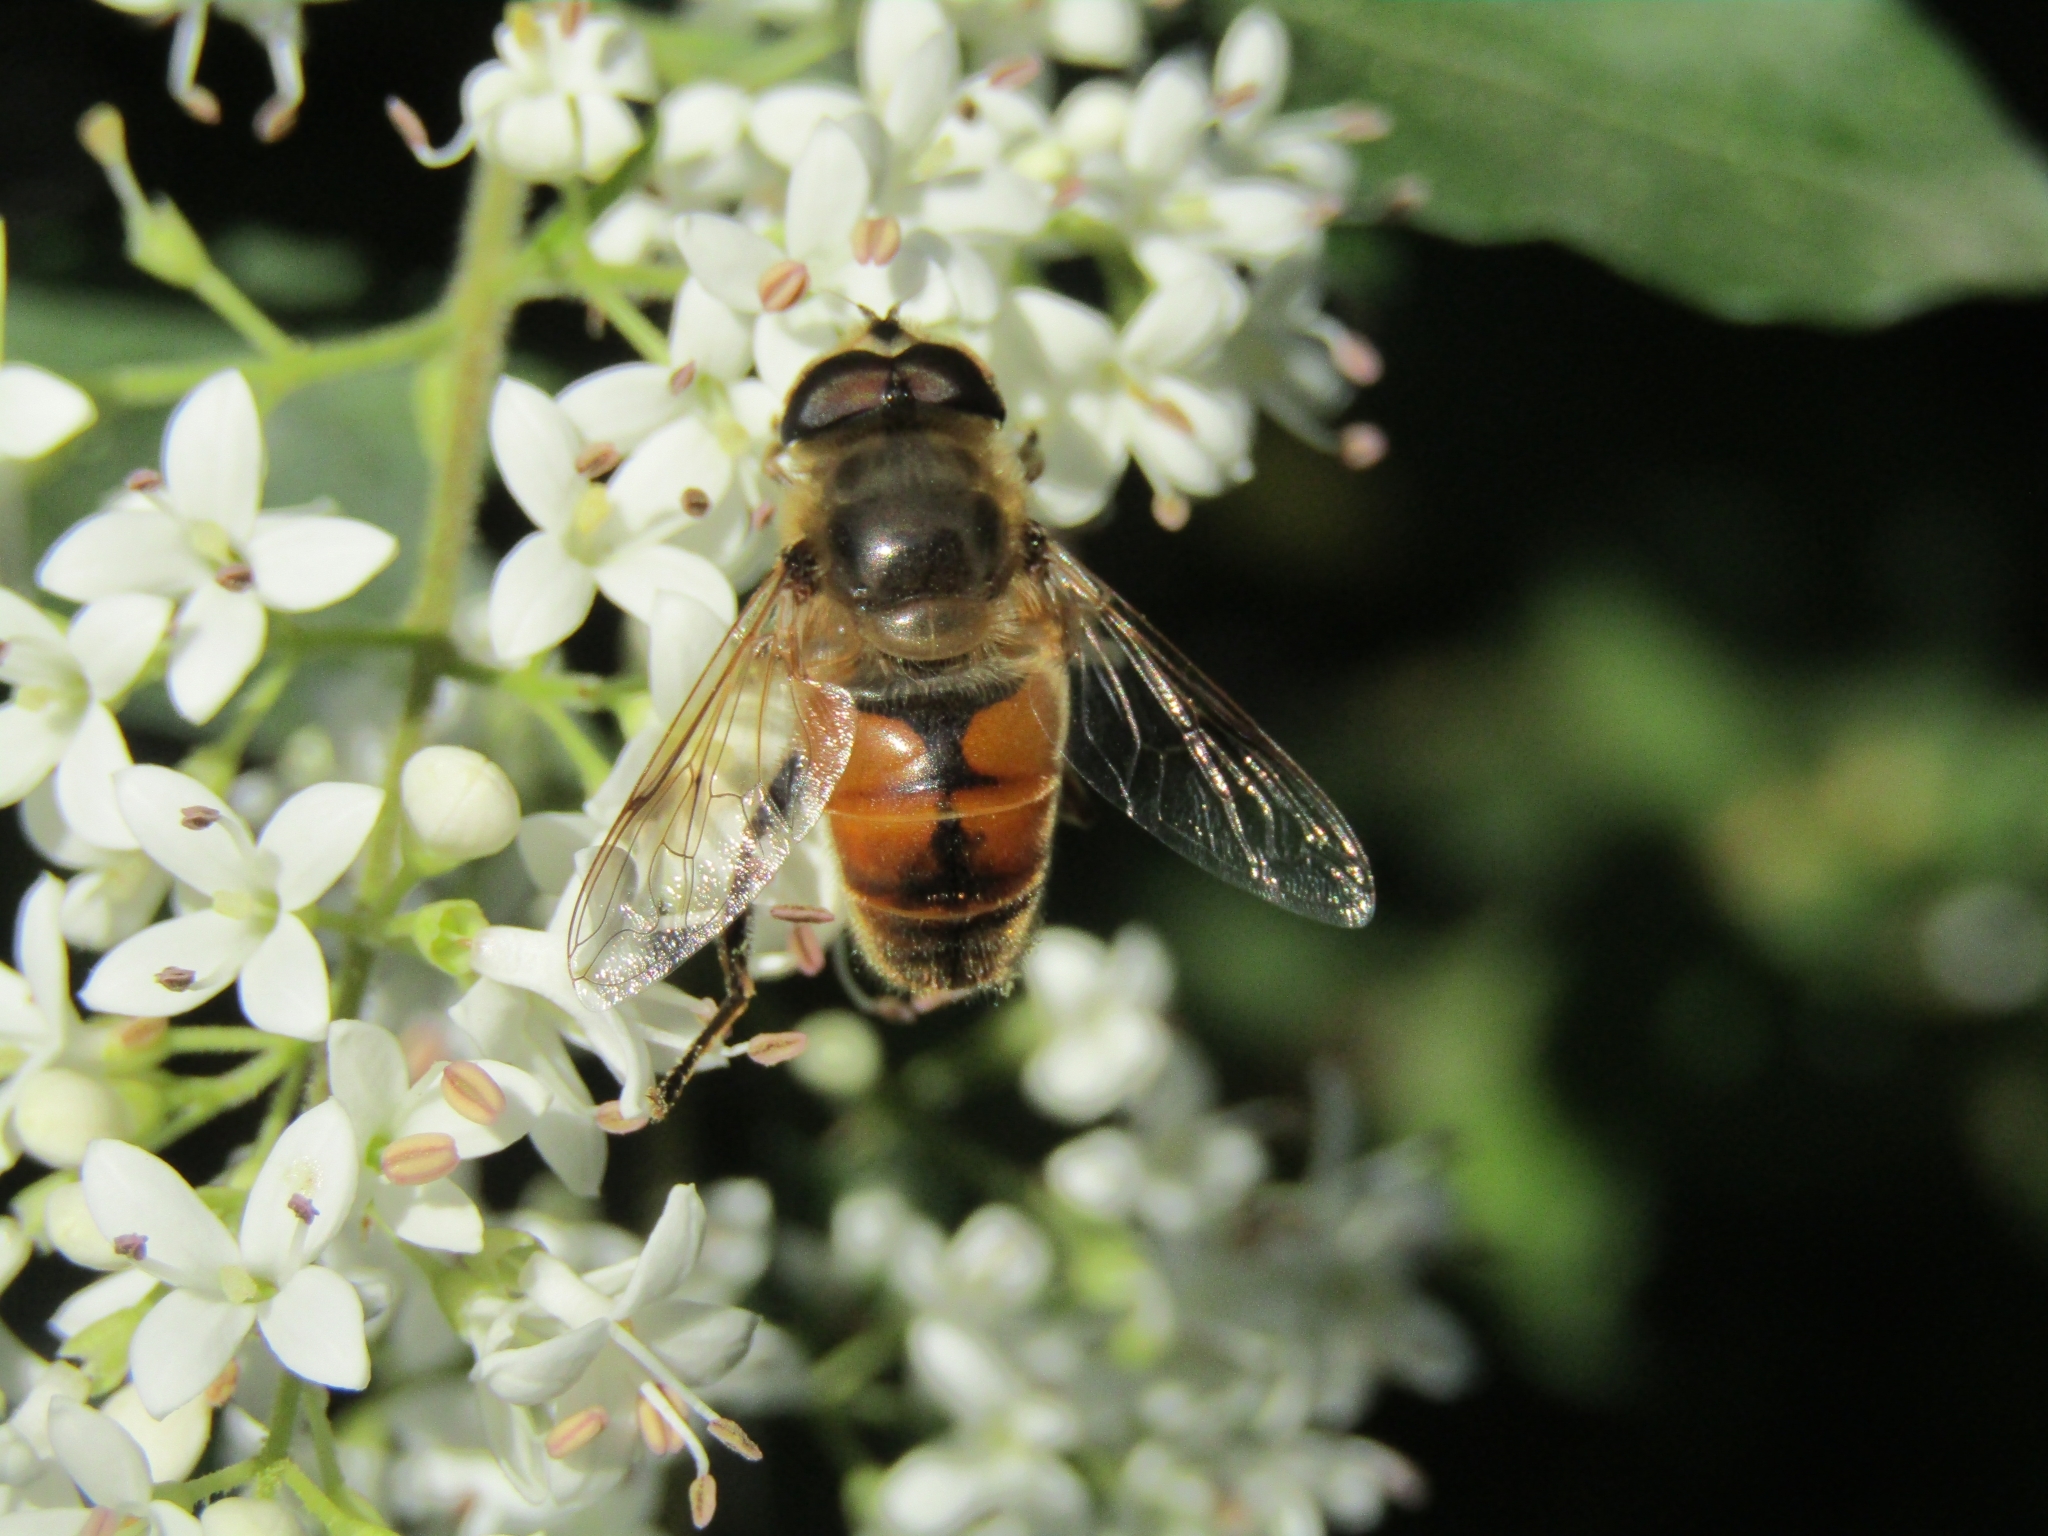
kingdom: Animalia
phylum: Arthropoda
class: Insecta
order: Diptera
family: Syrphidae
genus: Eristalis
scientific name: Eristalis tenax
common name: Drone fly
